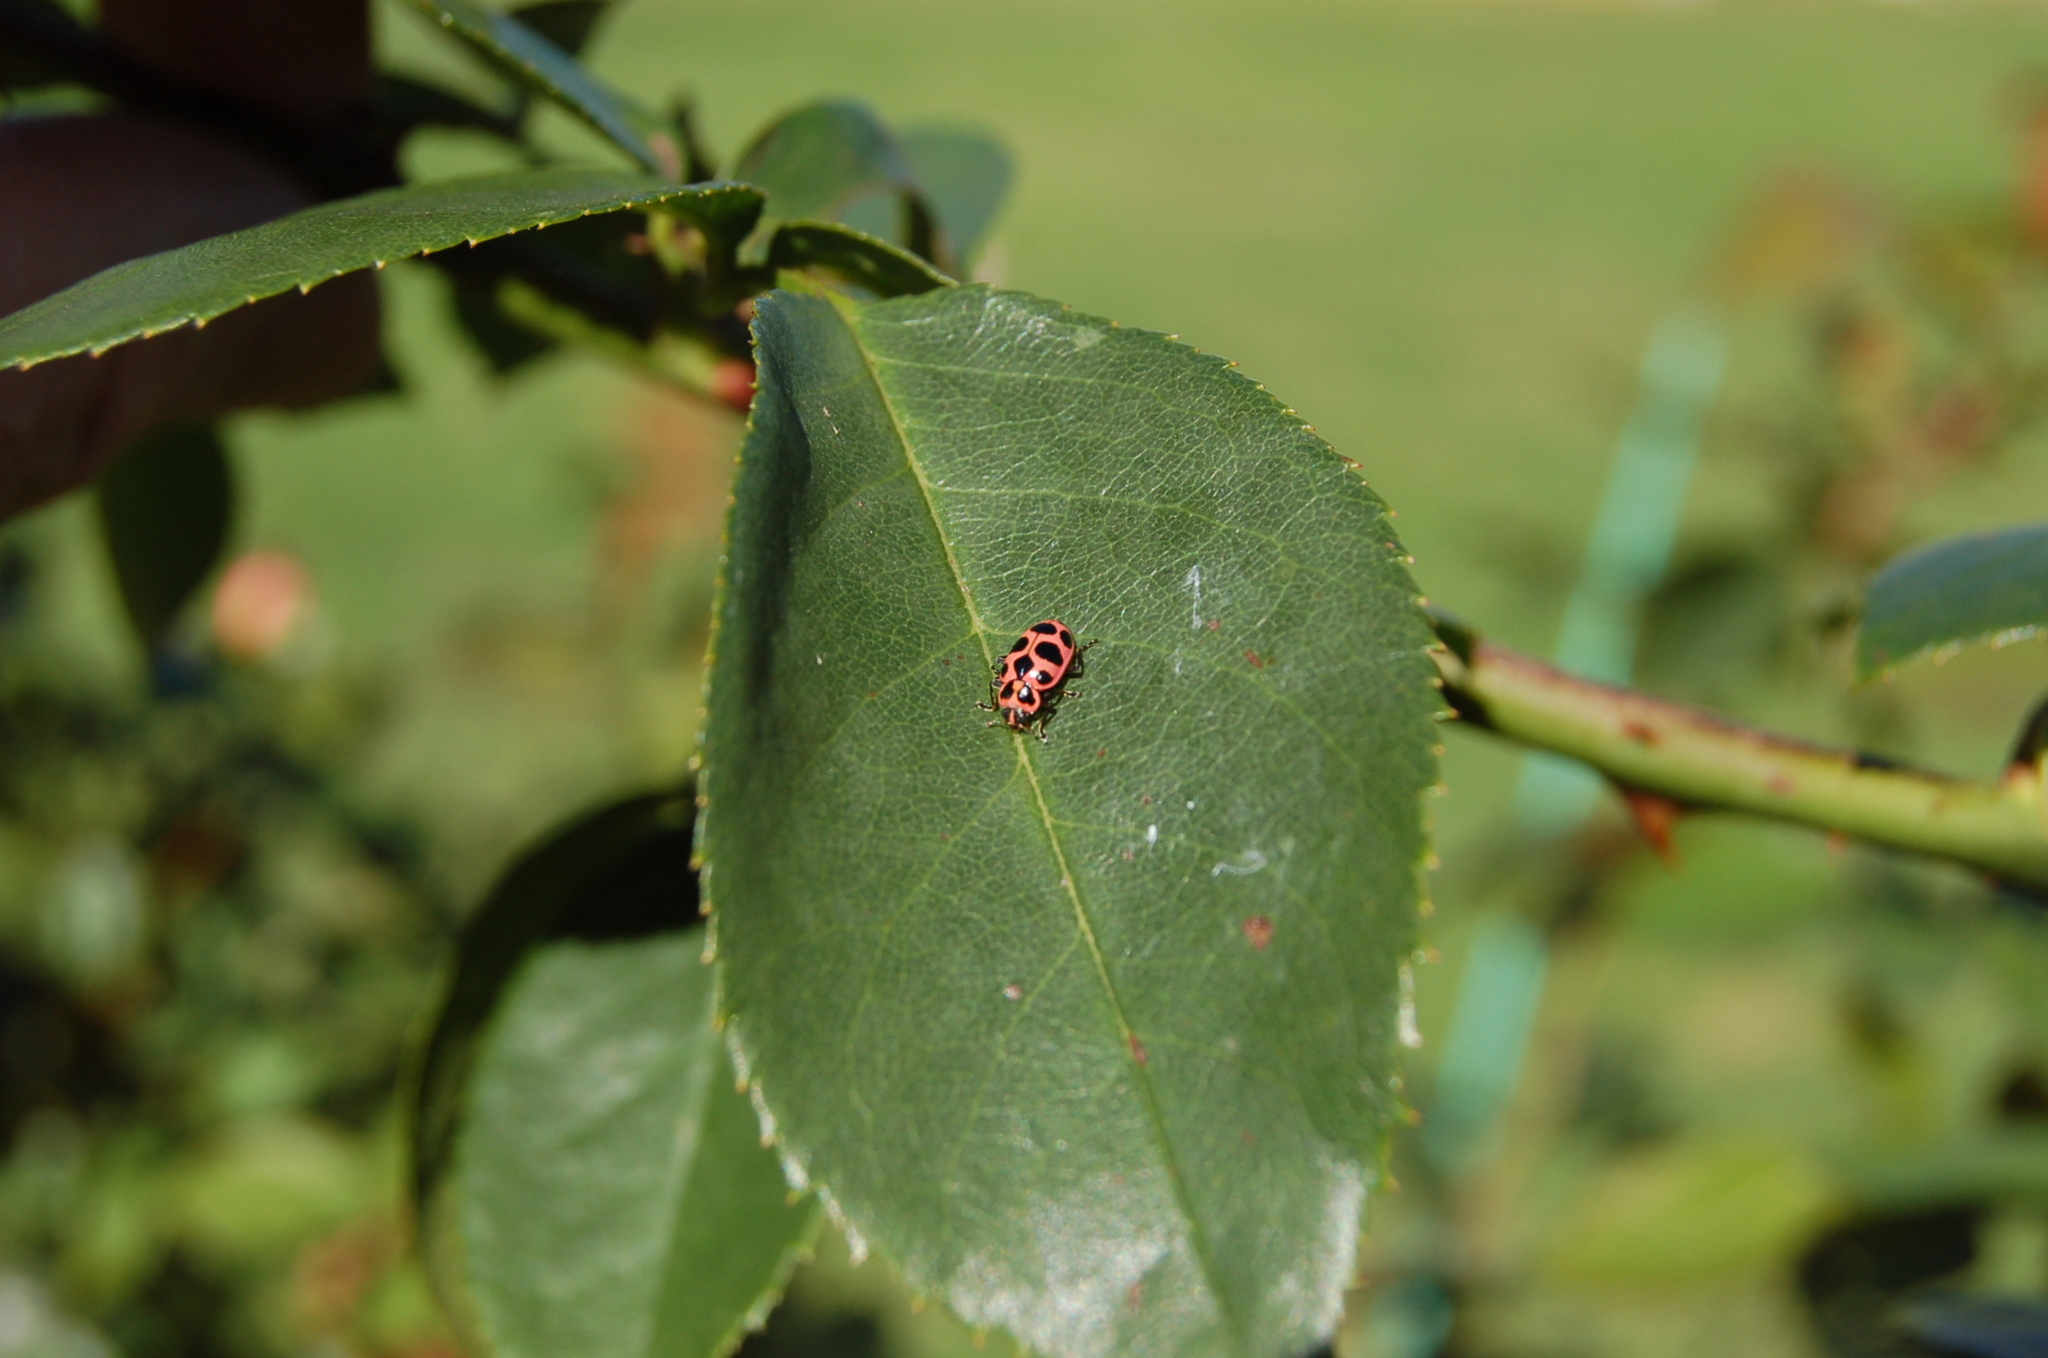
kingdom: Animalia
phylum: Arthropoda
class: Insecta
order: Coleoptera
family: Coccinellidae
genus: Coleomegilla
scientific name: Coleomegilla maculata
